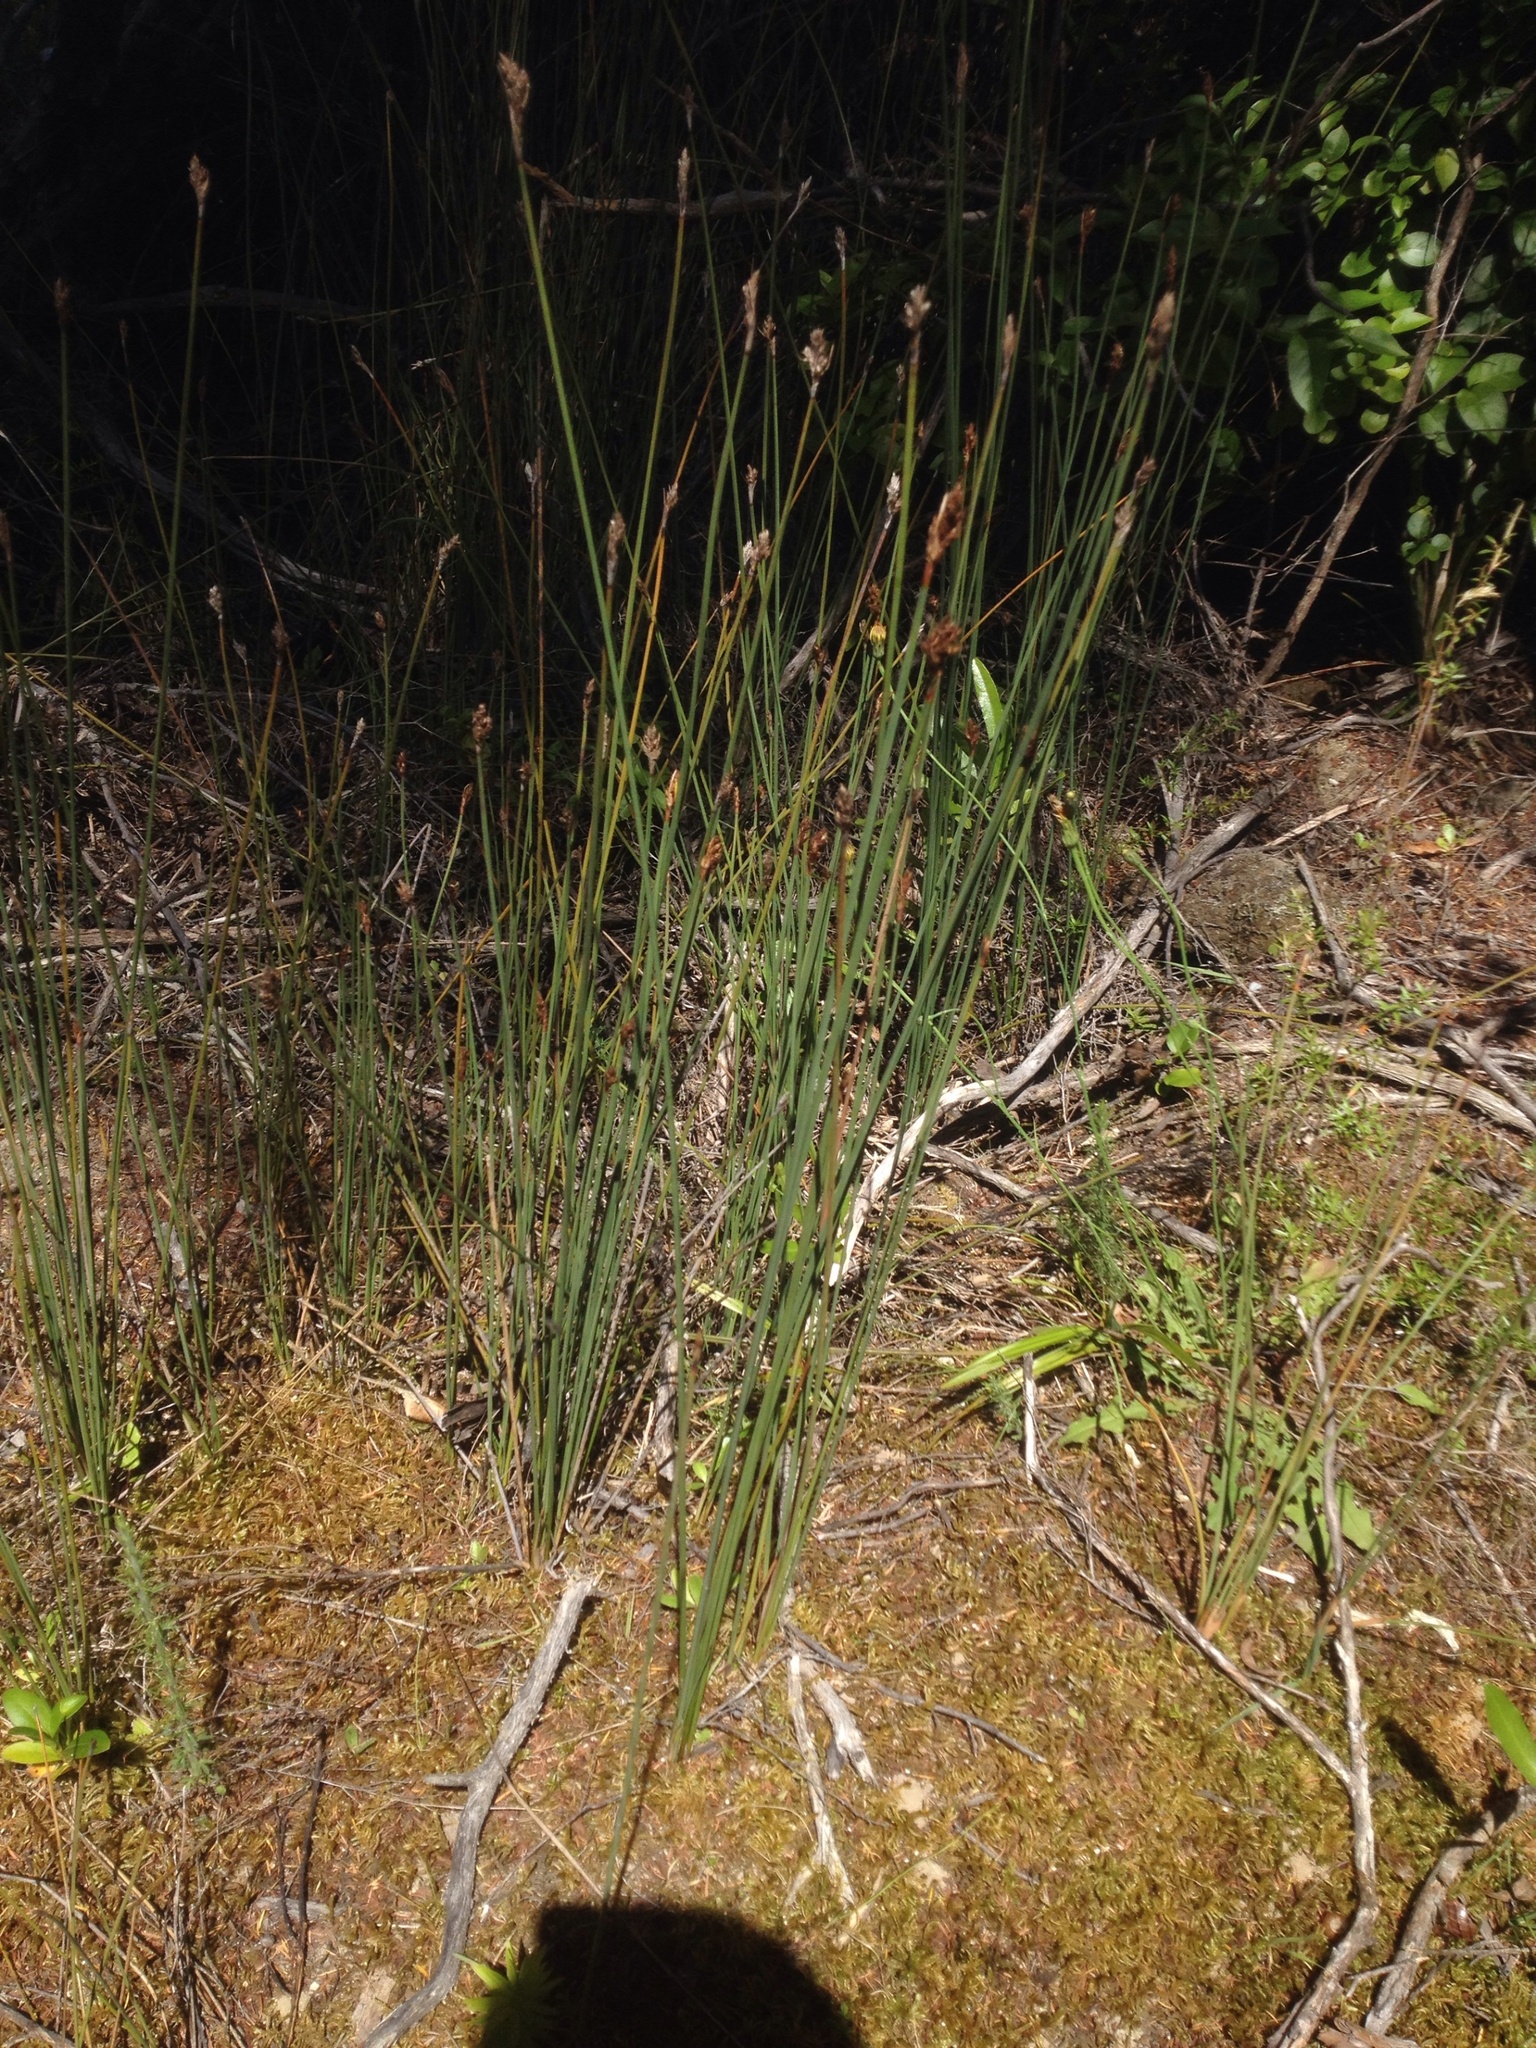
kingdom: Plantae
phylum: Tracheophyta
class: Liliopsida
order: Poales
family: Restionaceae
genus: Apodasmia
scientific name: Apodasmia similis
